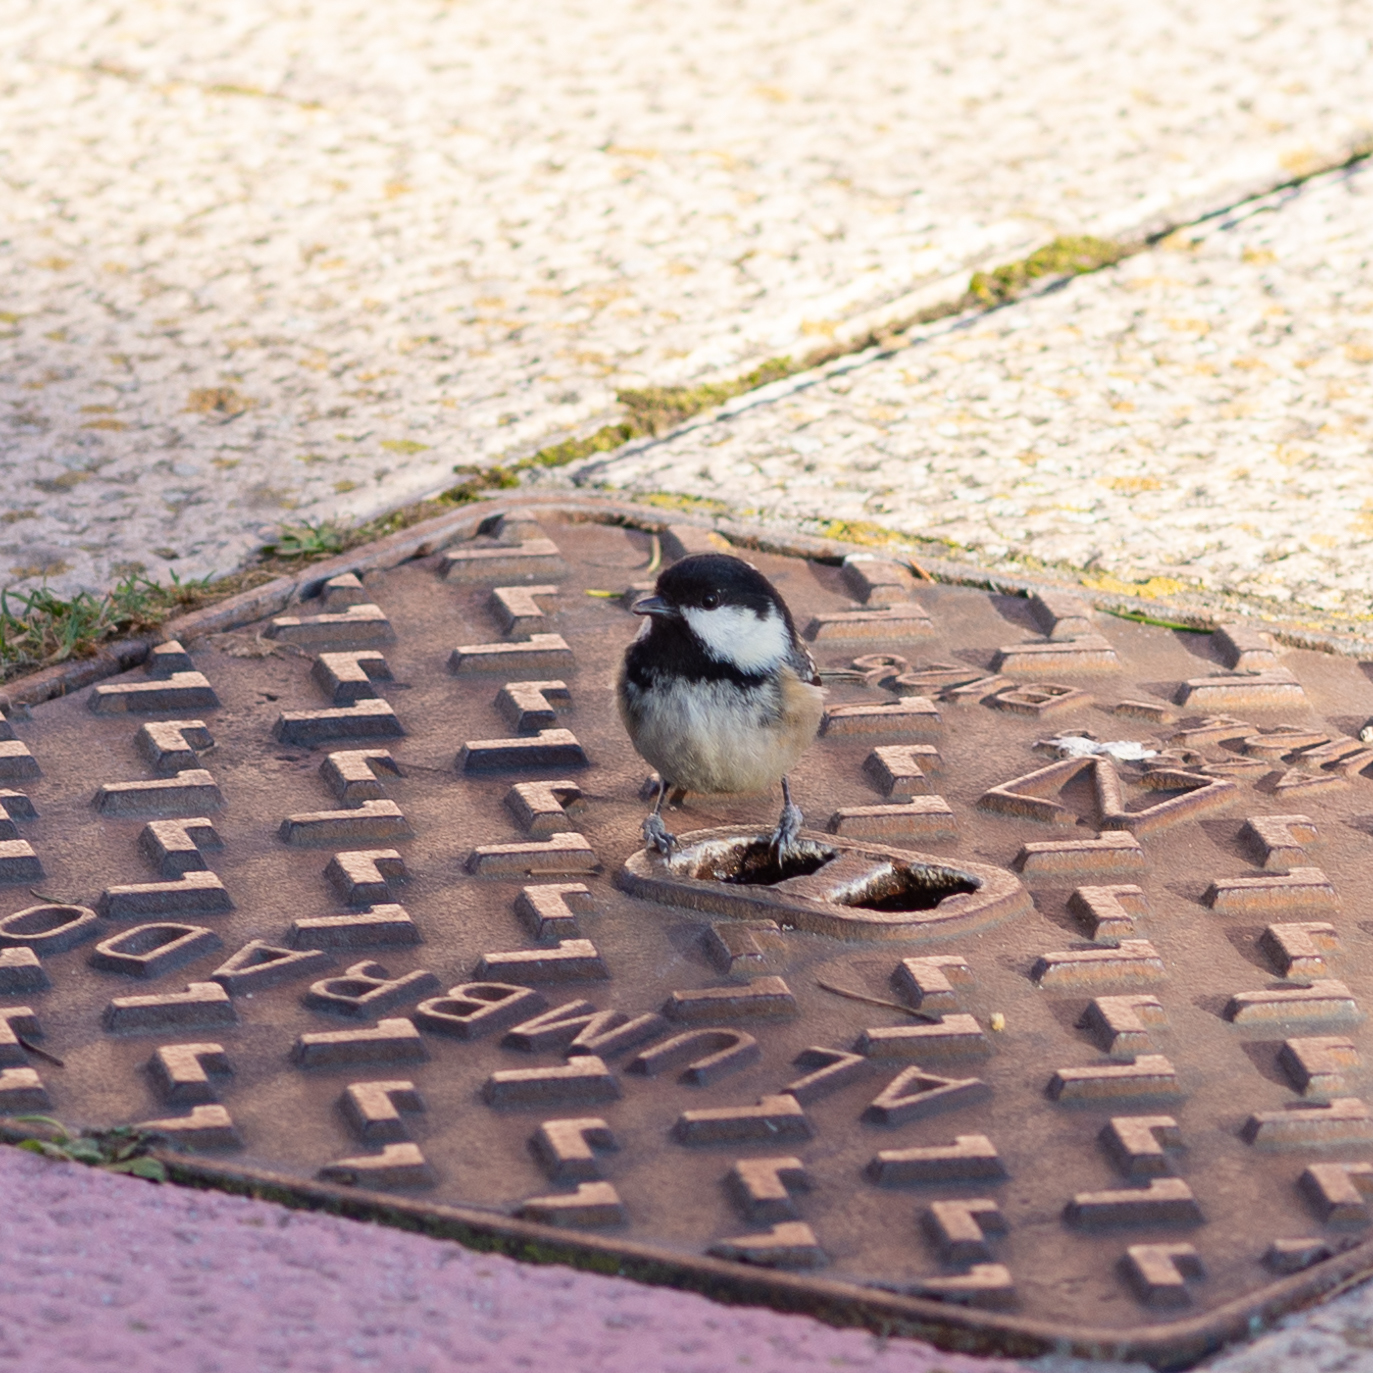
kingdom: Animalia
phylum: Chordata
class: Aves
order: Passeriformes
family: Paridae
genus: Periparus
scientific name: Periparus ater
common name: Coal tit
